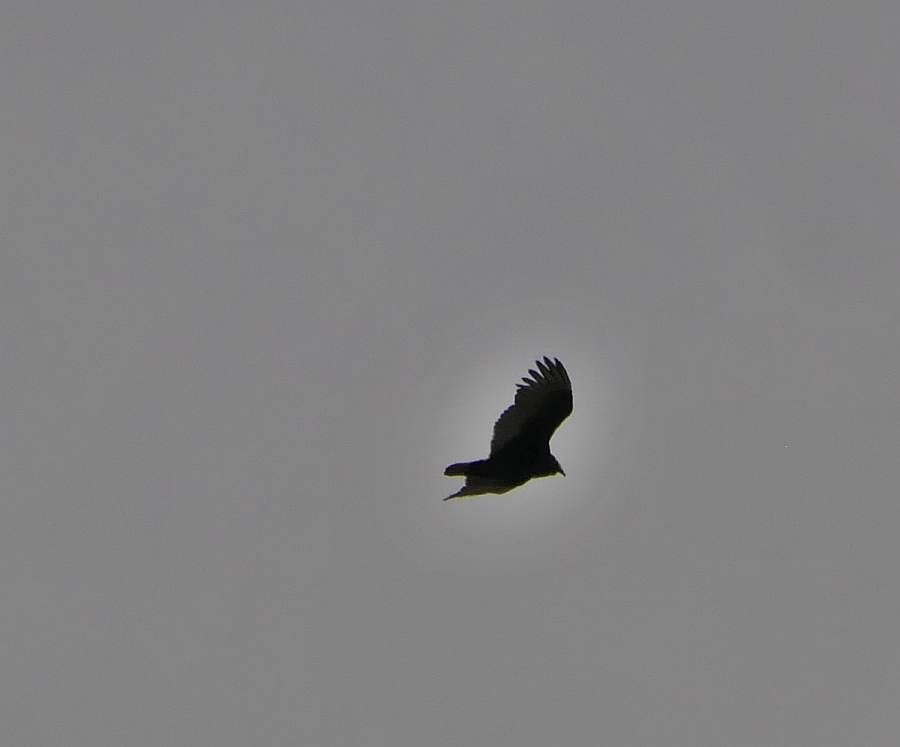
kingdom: Animalia
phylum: Chordata
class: Aves
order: Accipitriformes
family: Cathartidae
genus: Cathartes
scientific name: Cathartes aura
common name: Turkey vulture
